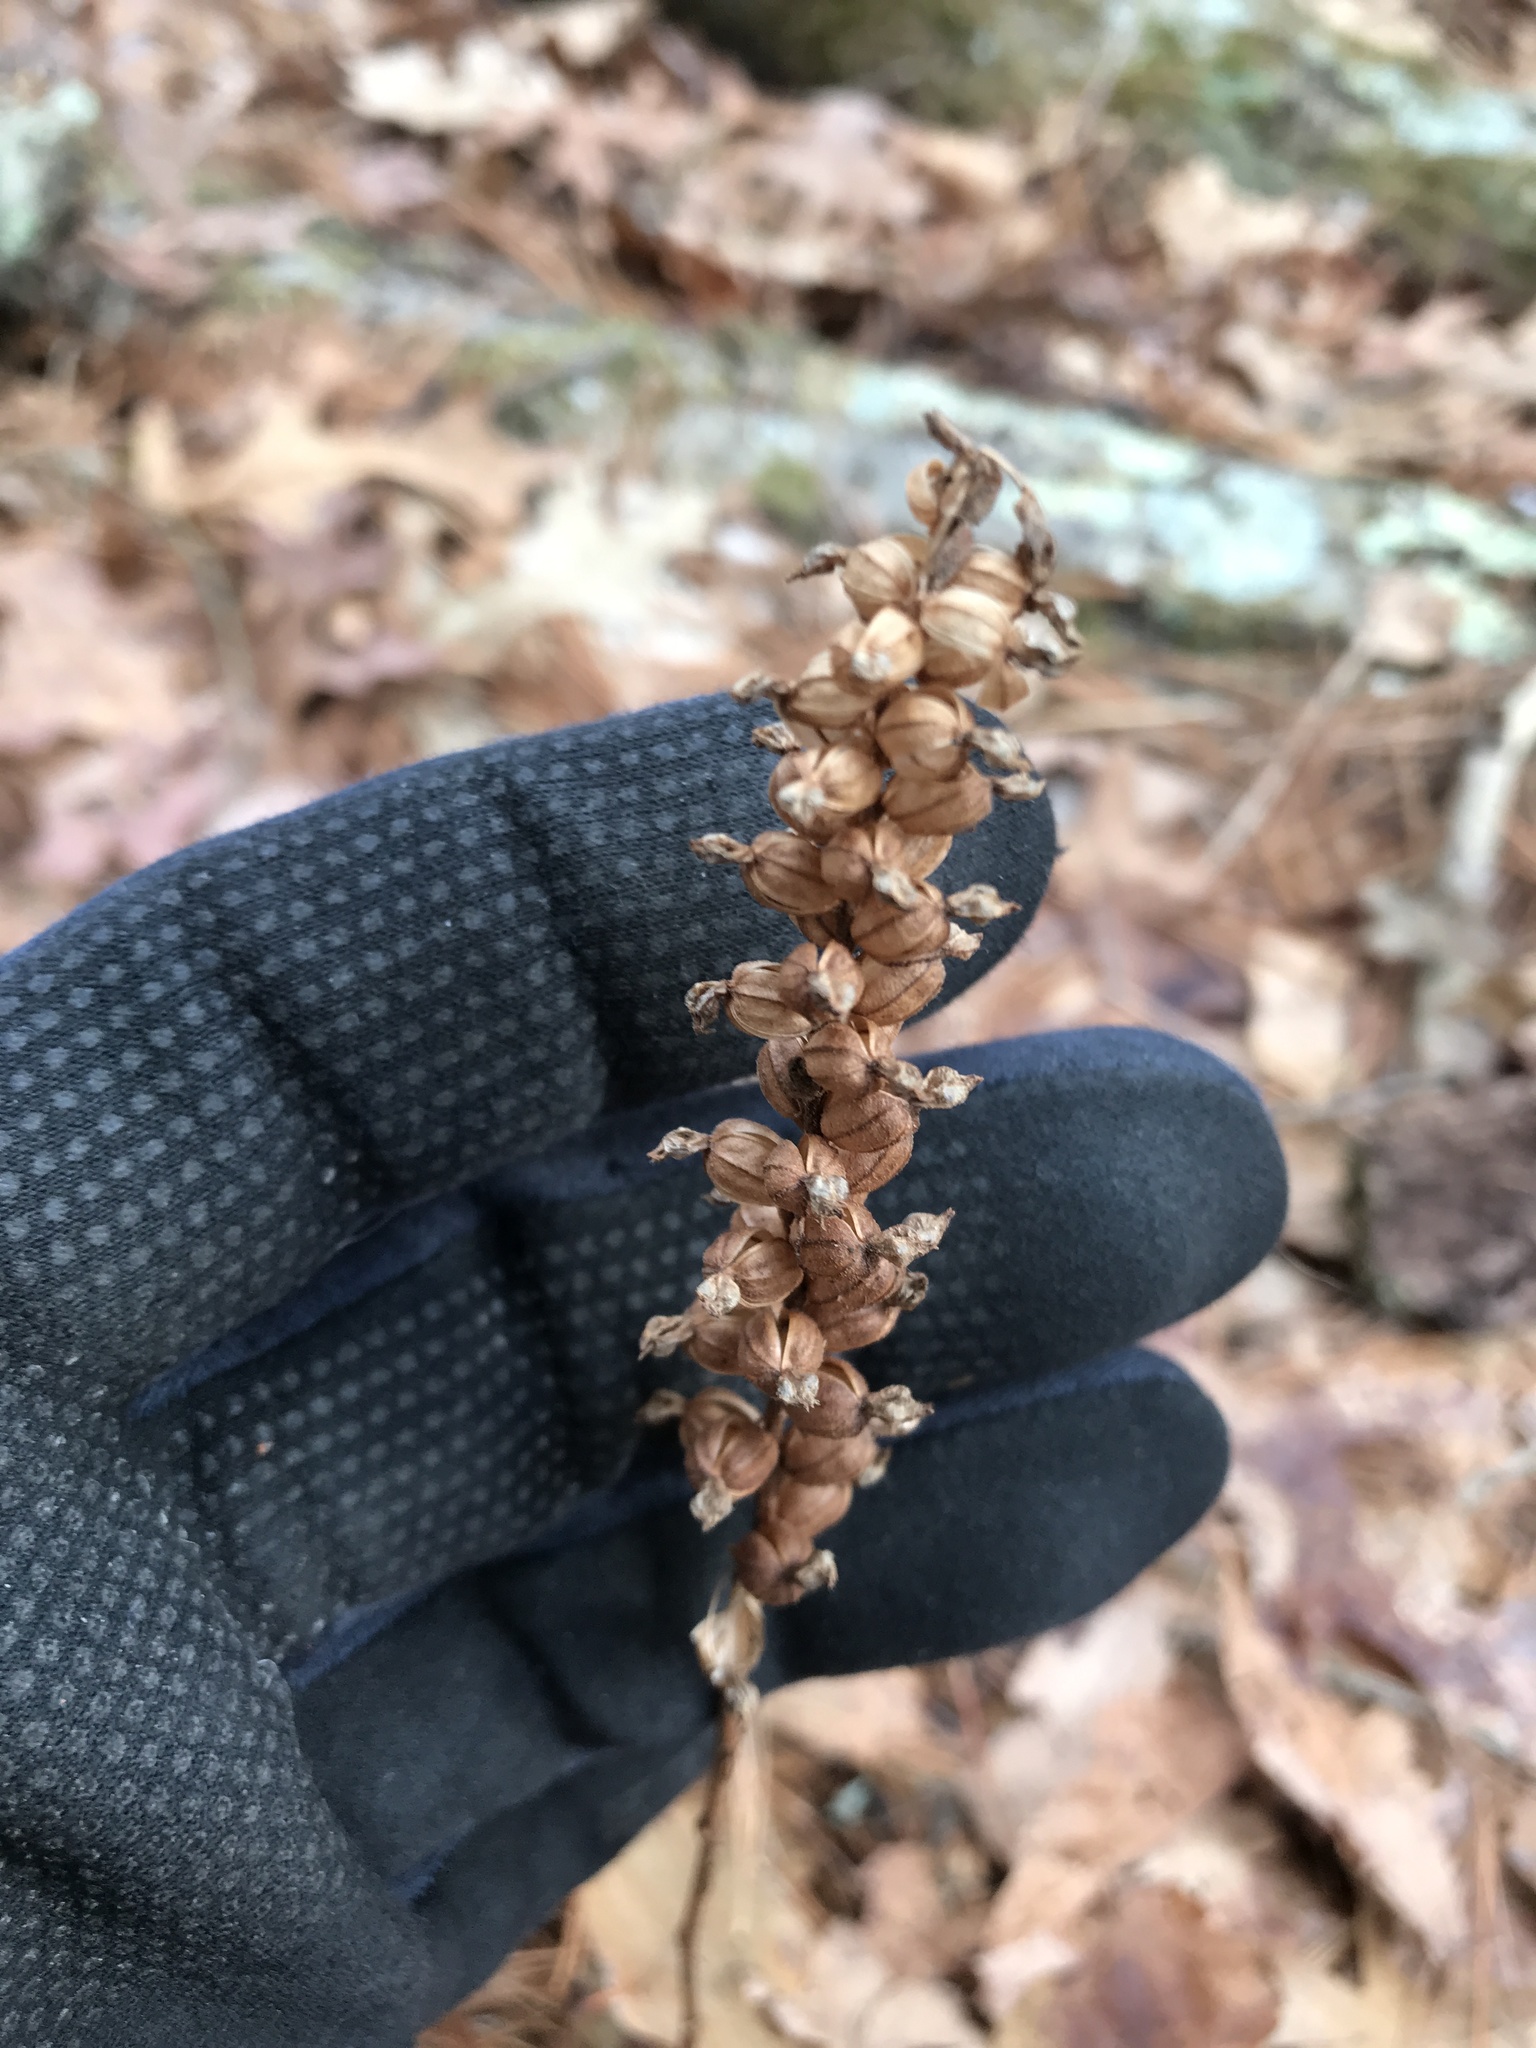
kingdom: Plantae
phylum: Tracheophyta
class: Liliopsida
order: Asparagales
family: Orchidaceae
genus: Goodyera
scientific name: Goodyera pubescens
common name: Downy rattlesnake-plantain
